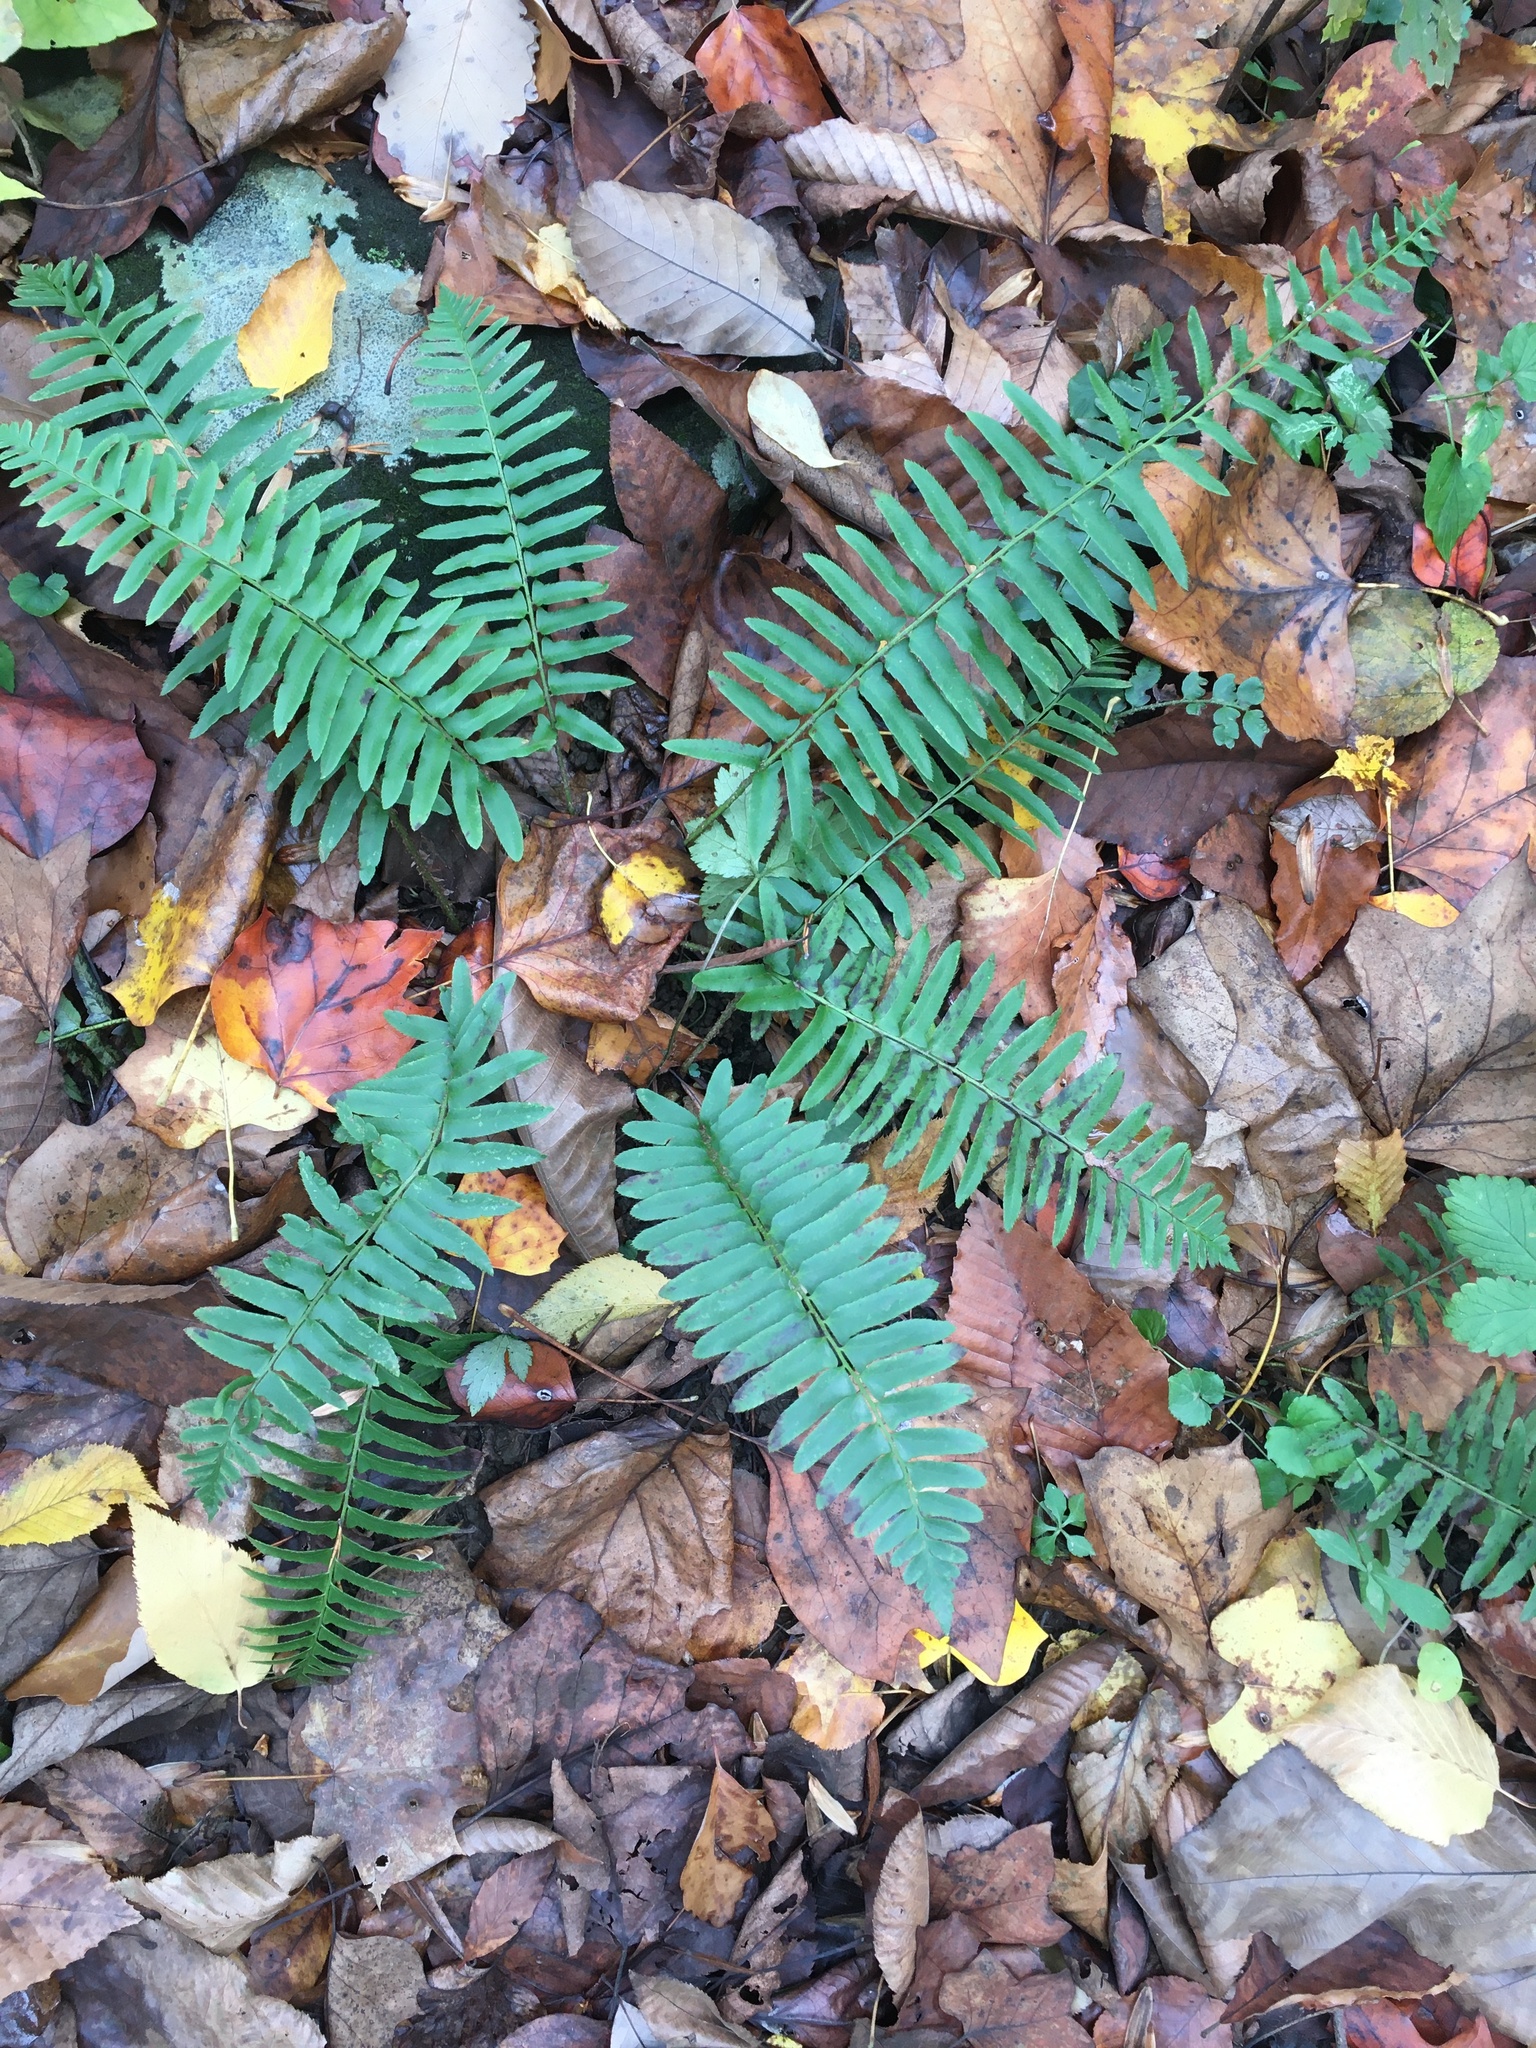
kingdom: Plantae
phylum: Tracheophyta
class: Polypodiopsida
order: Polypodiales
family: Dryopteridaceae
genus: Polystichum
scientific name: Polystichum acrostichoides
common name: Christmas fern
